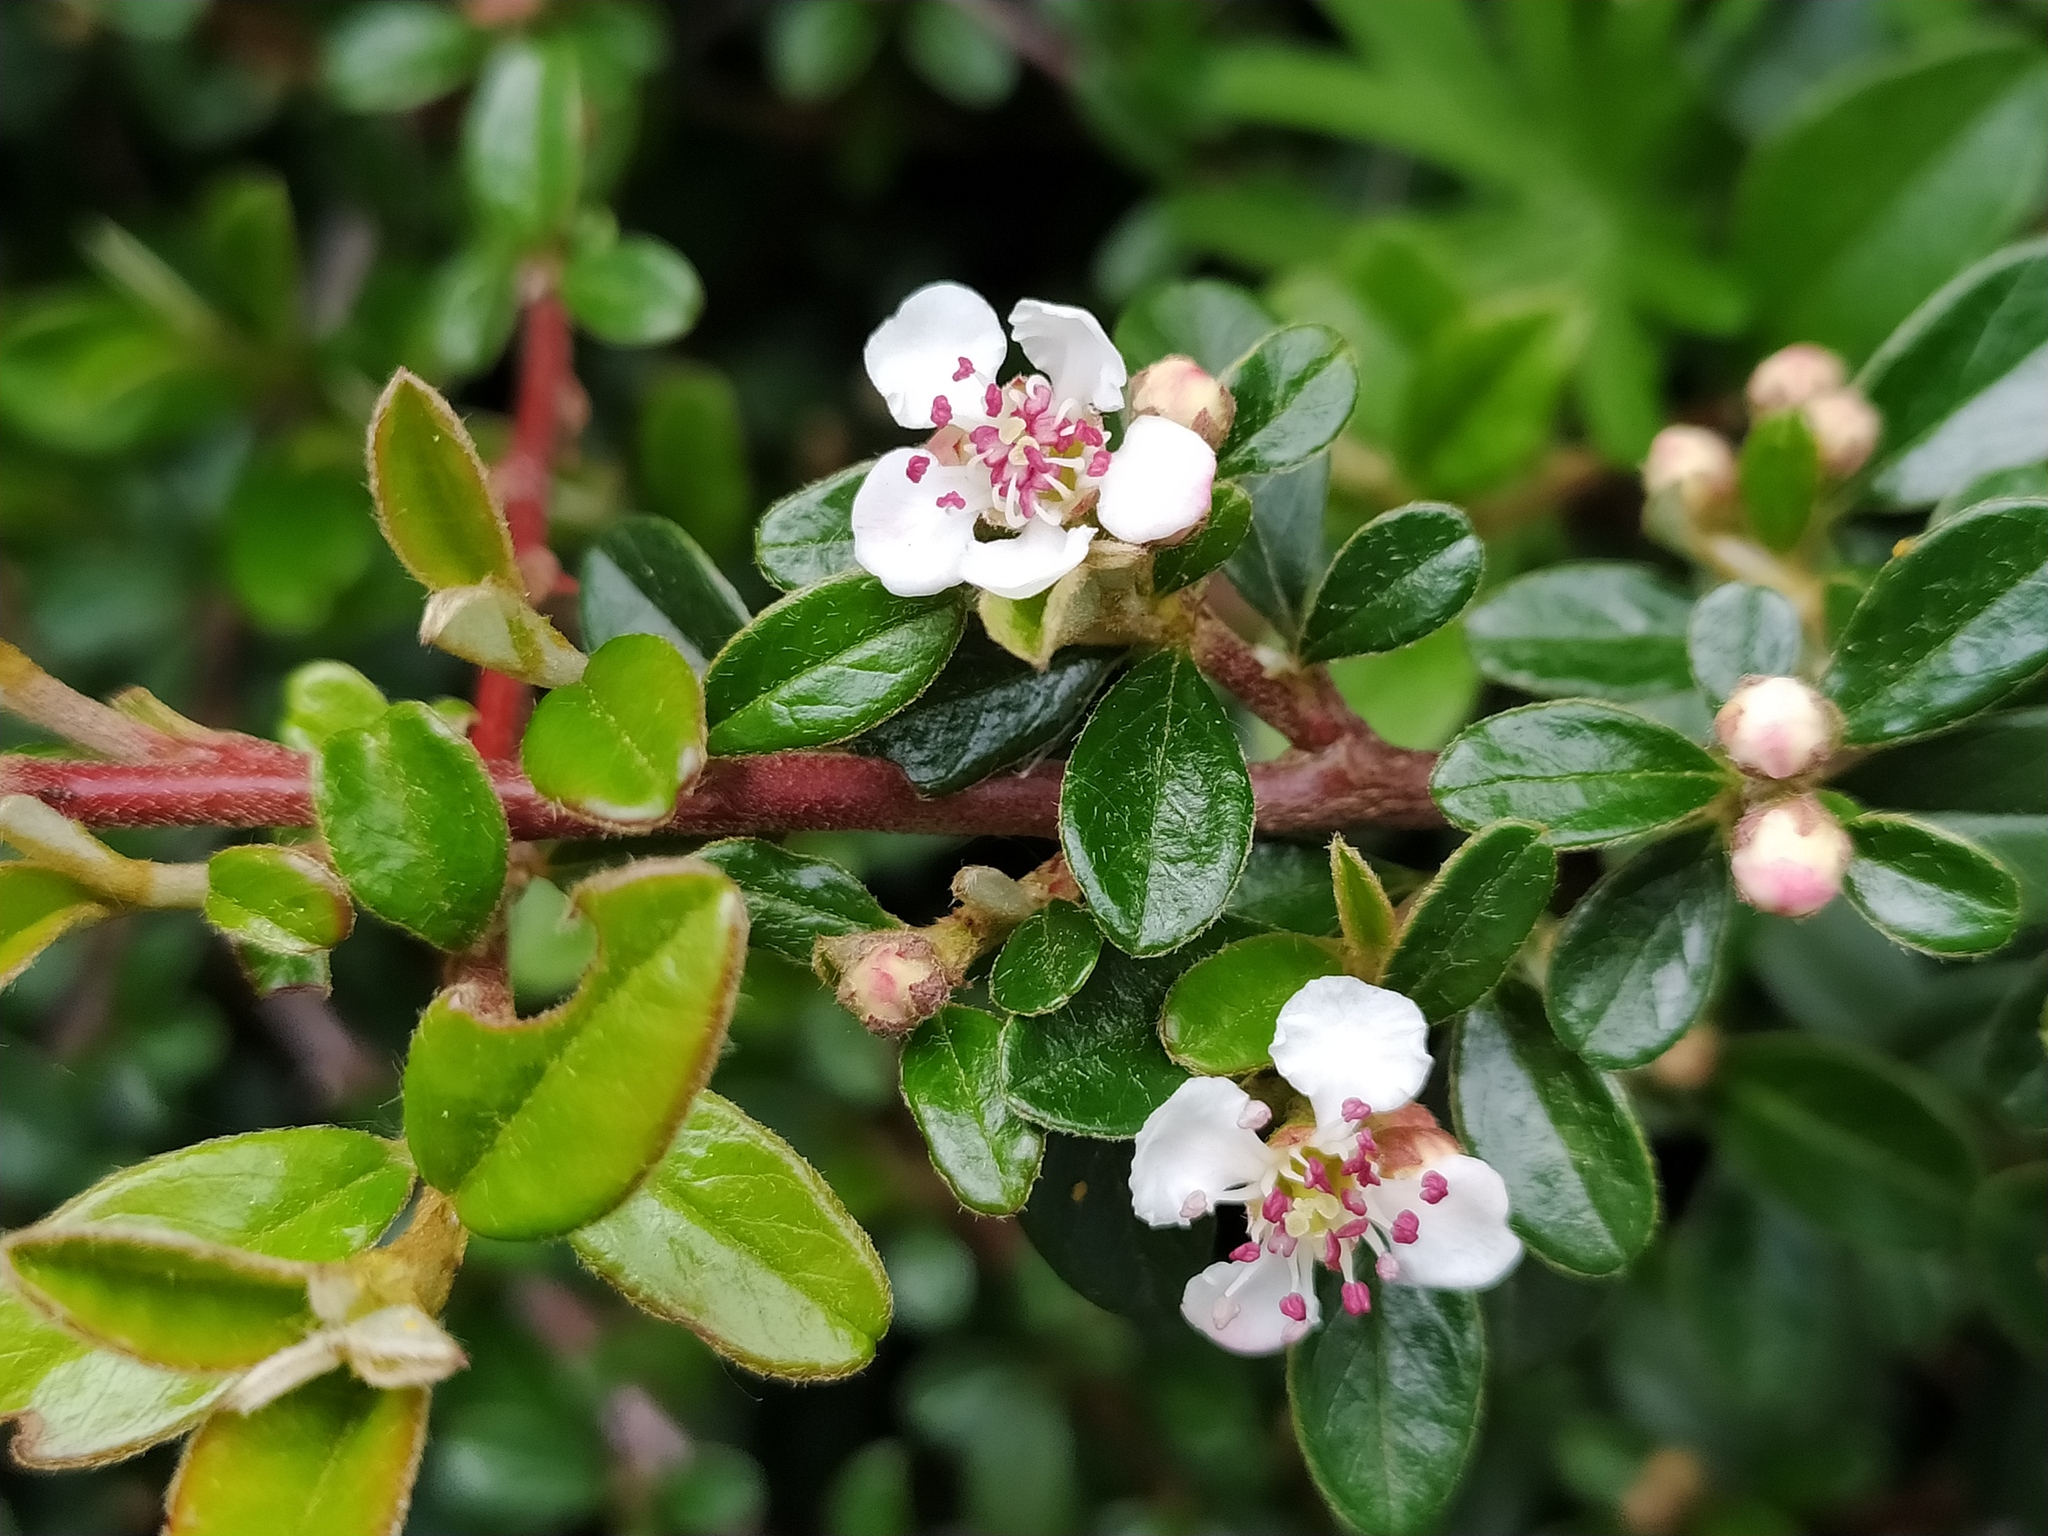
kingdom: Plantae
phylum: Tracheophyta
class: Magnoliopsida
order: Rosales
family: Rosaceae
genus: Cotoneaster
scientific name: Cotoneaster suecicus
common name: Swedish cotoneaster
